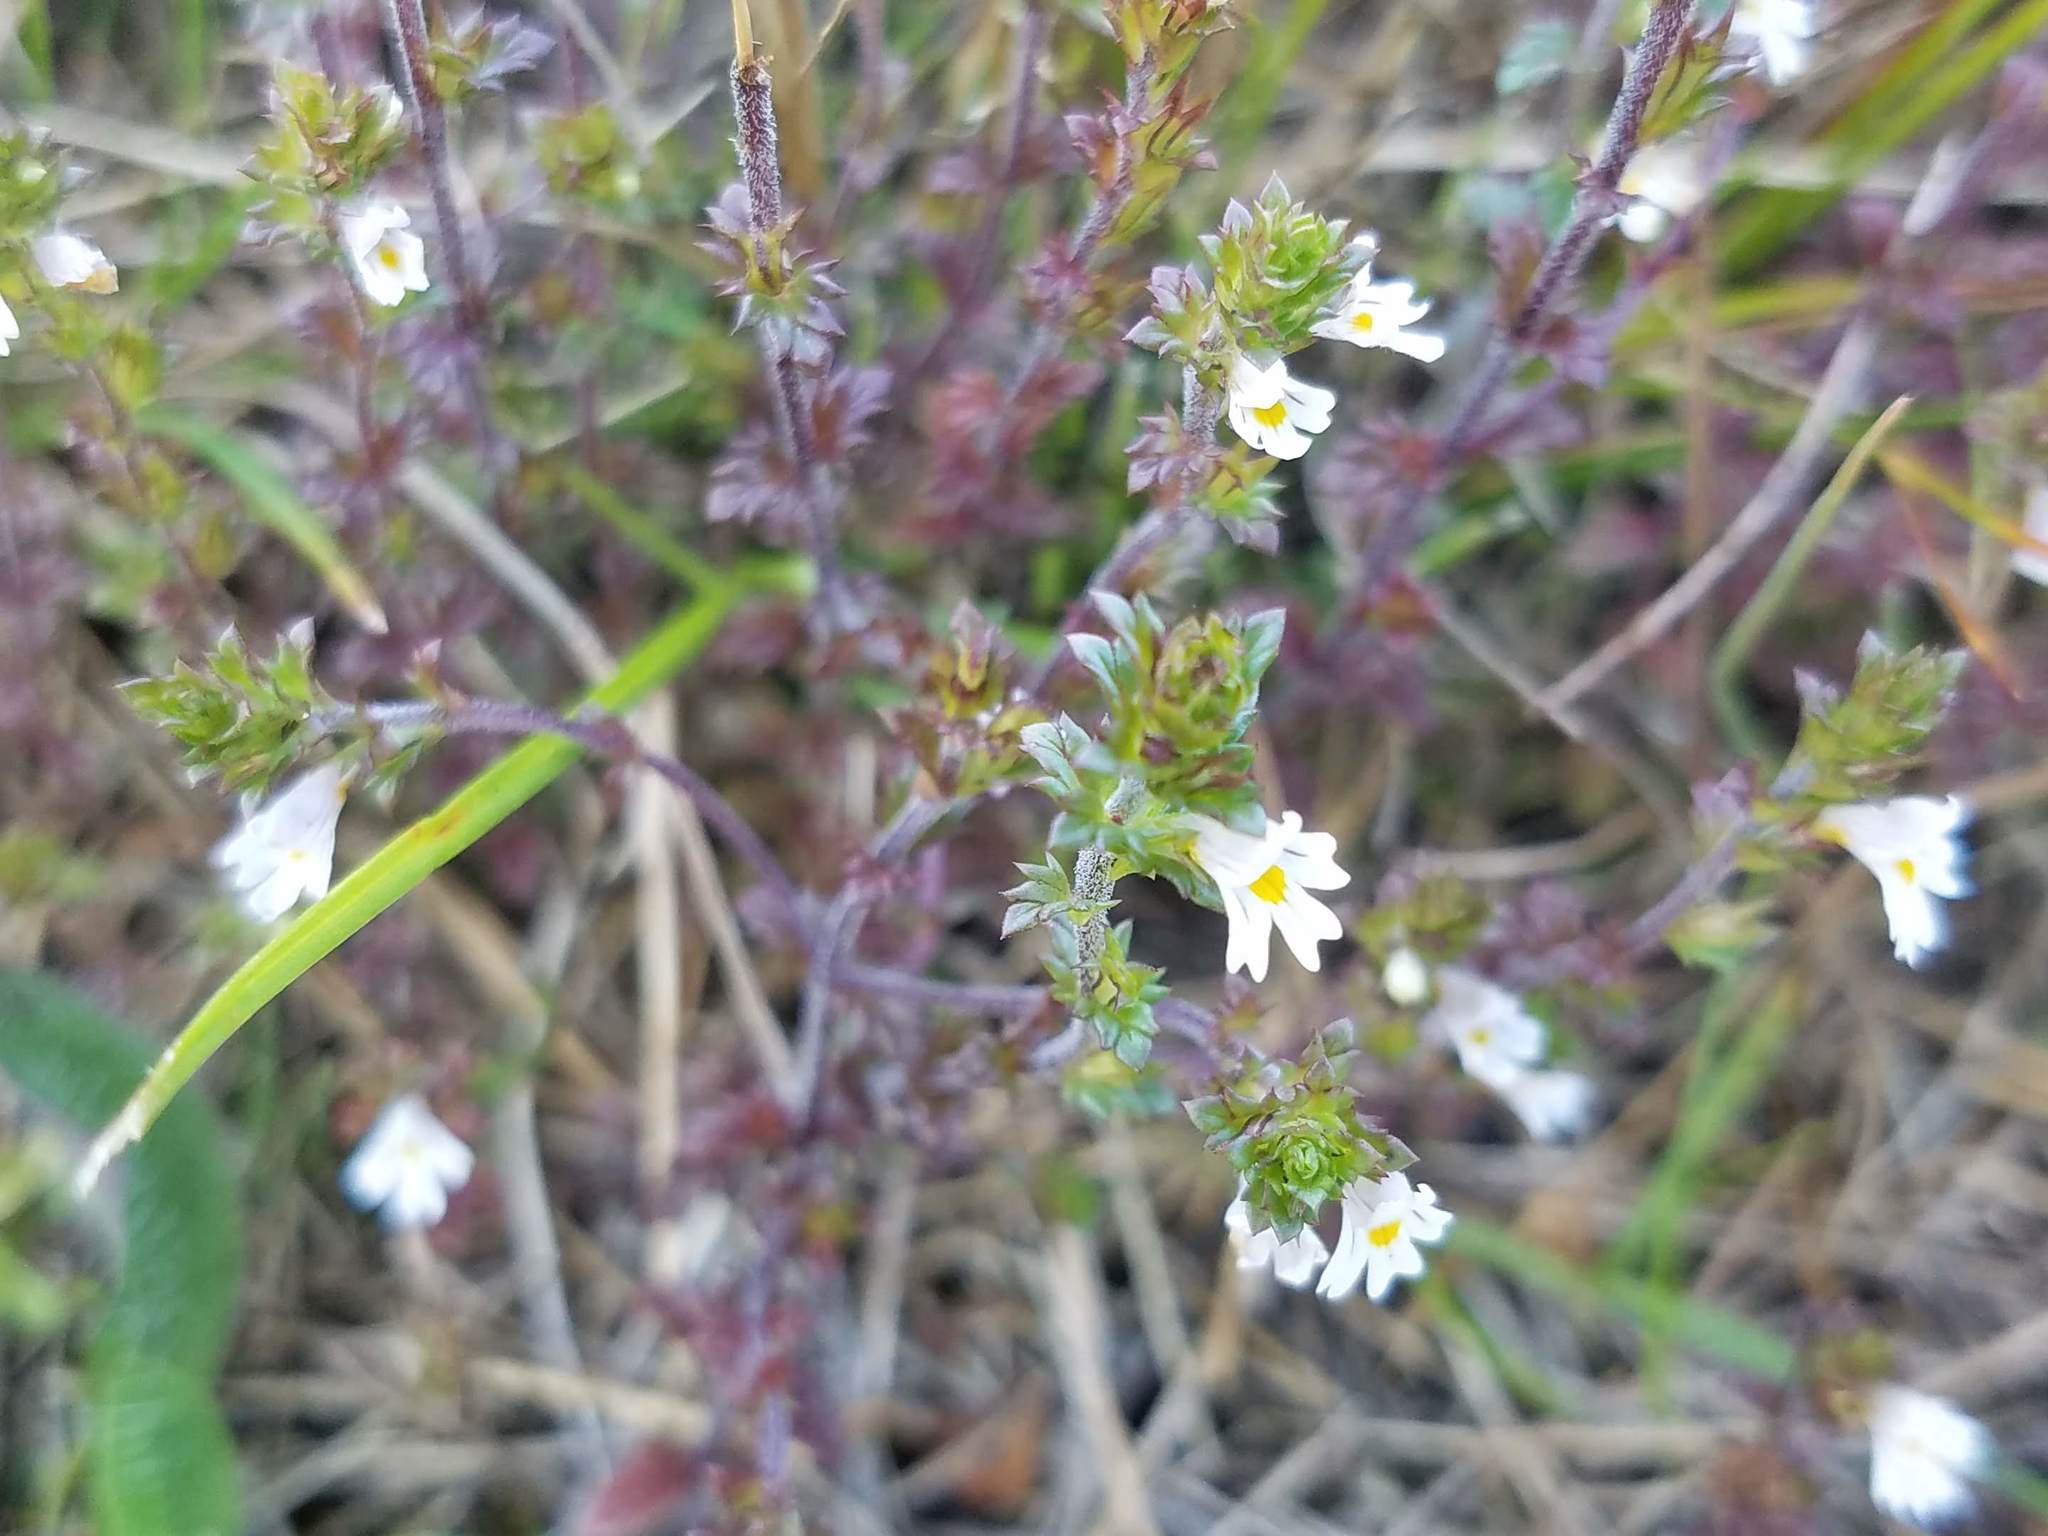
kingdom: Plantae
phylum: Tracheophyta
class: Magnoliopsida
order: Lamiales
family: Orobanchaceae
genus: Euphrasia
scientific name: Euphrasia stricta
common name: Drug eyebright
